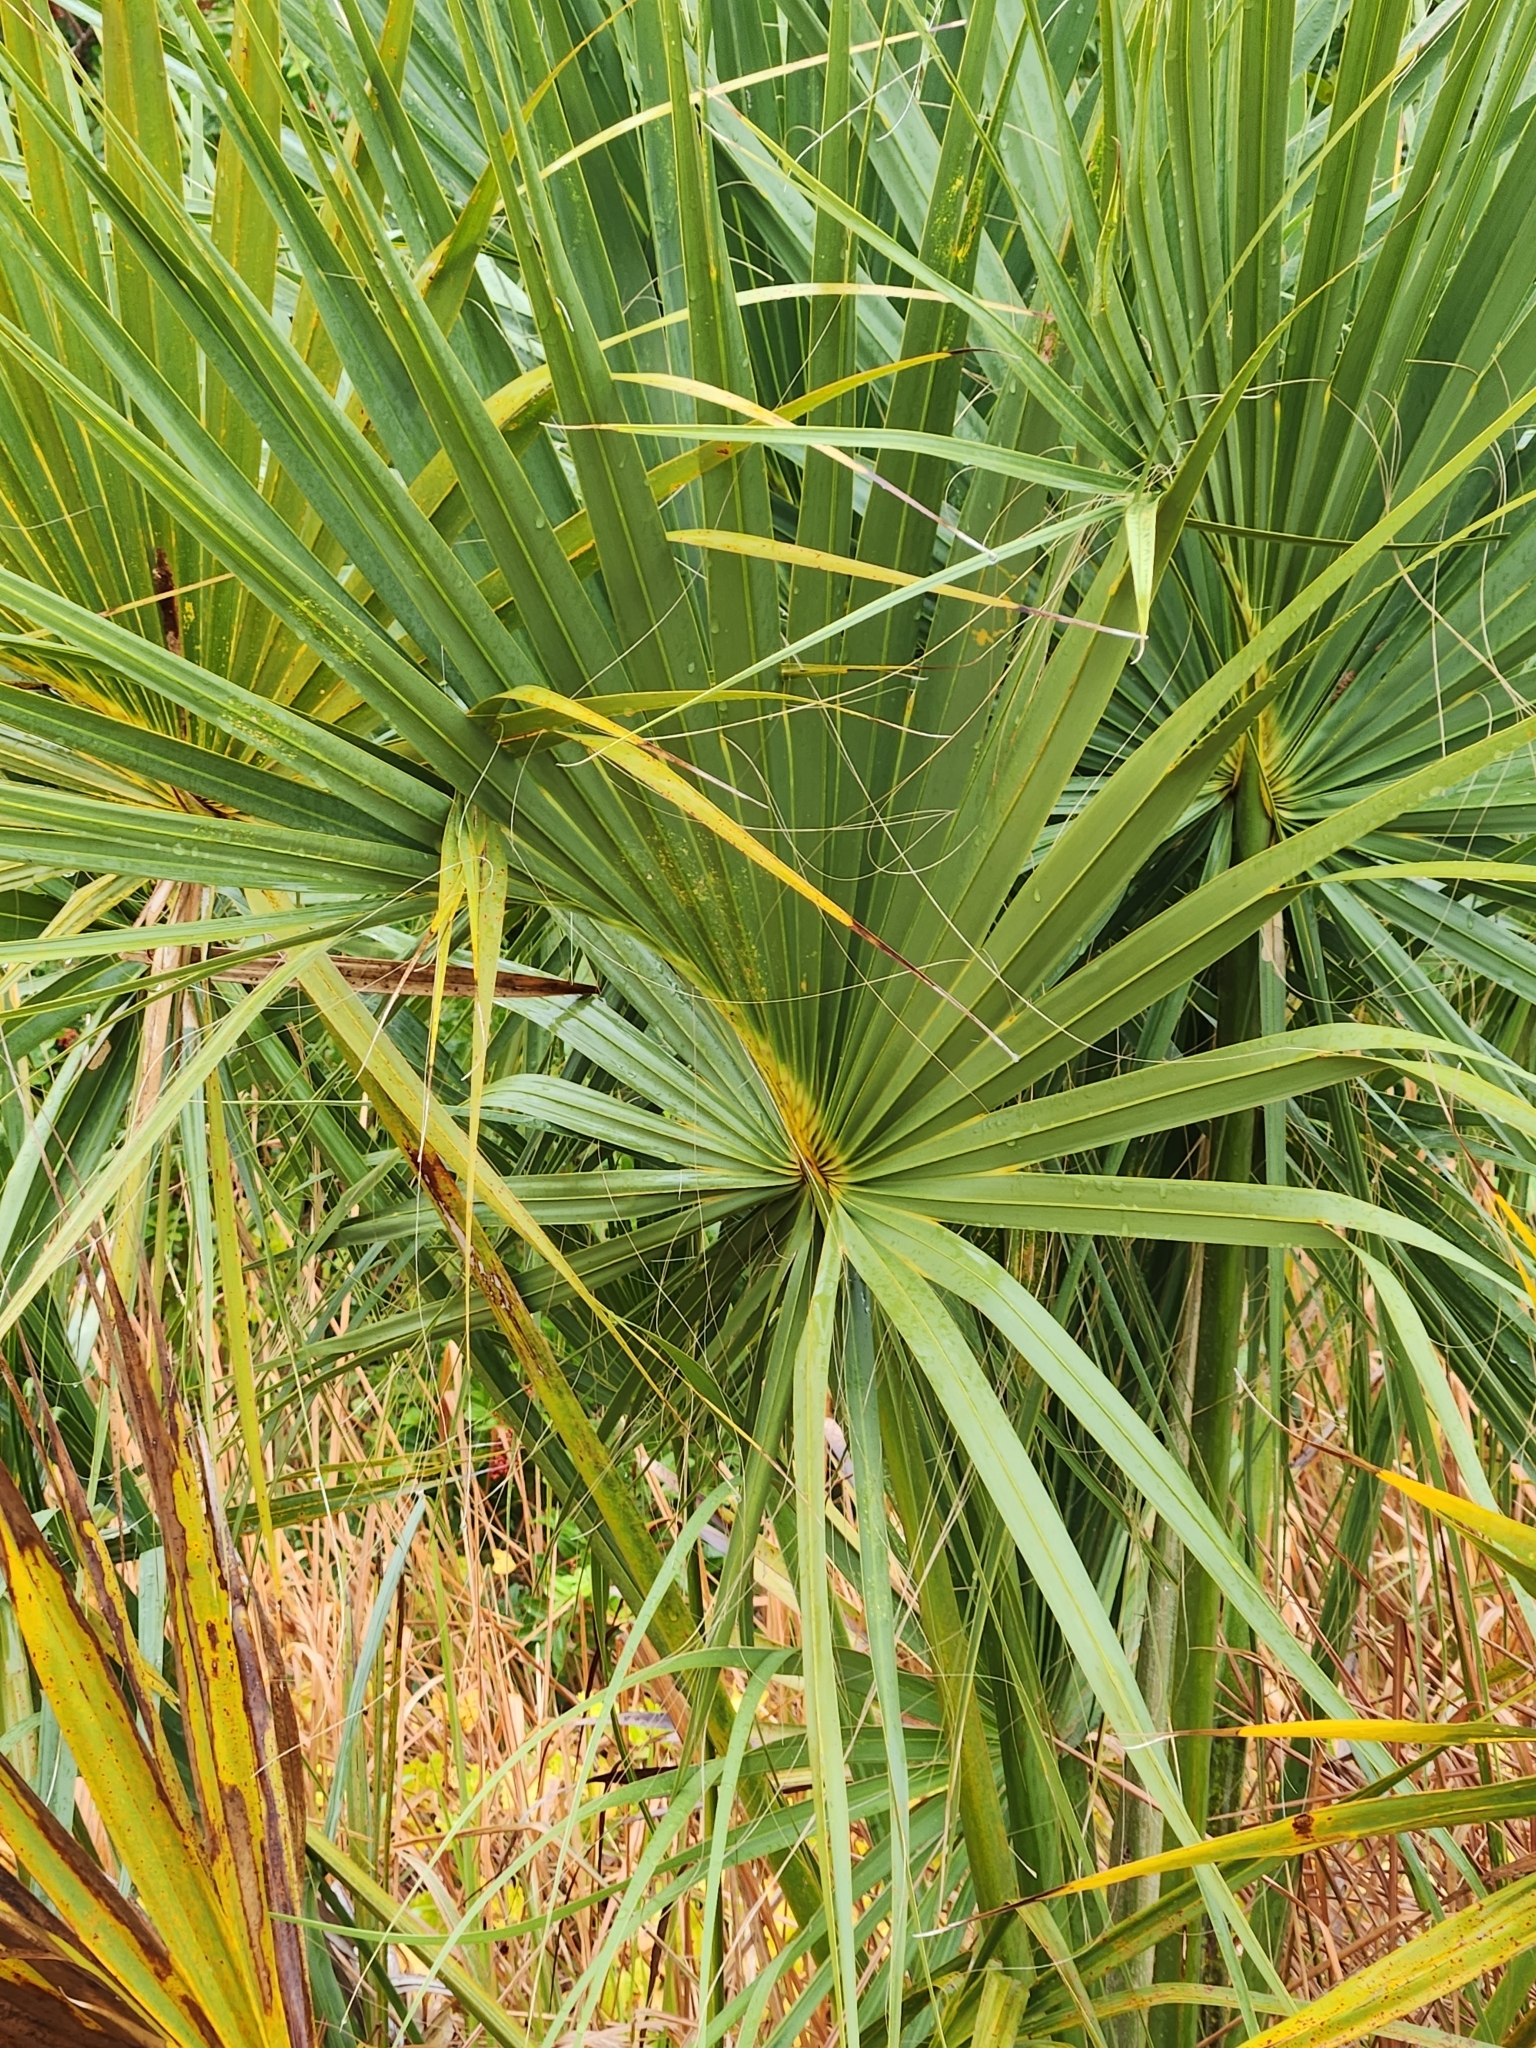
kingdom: Plantae
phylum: Tracheophyta
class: Liliopsida
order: Arecales
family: Arecaceae
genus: Sabal
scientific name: Sabal palmetto
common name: Blue palmetto
